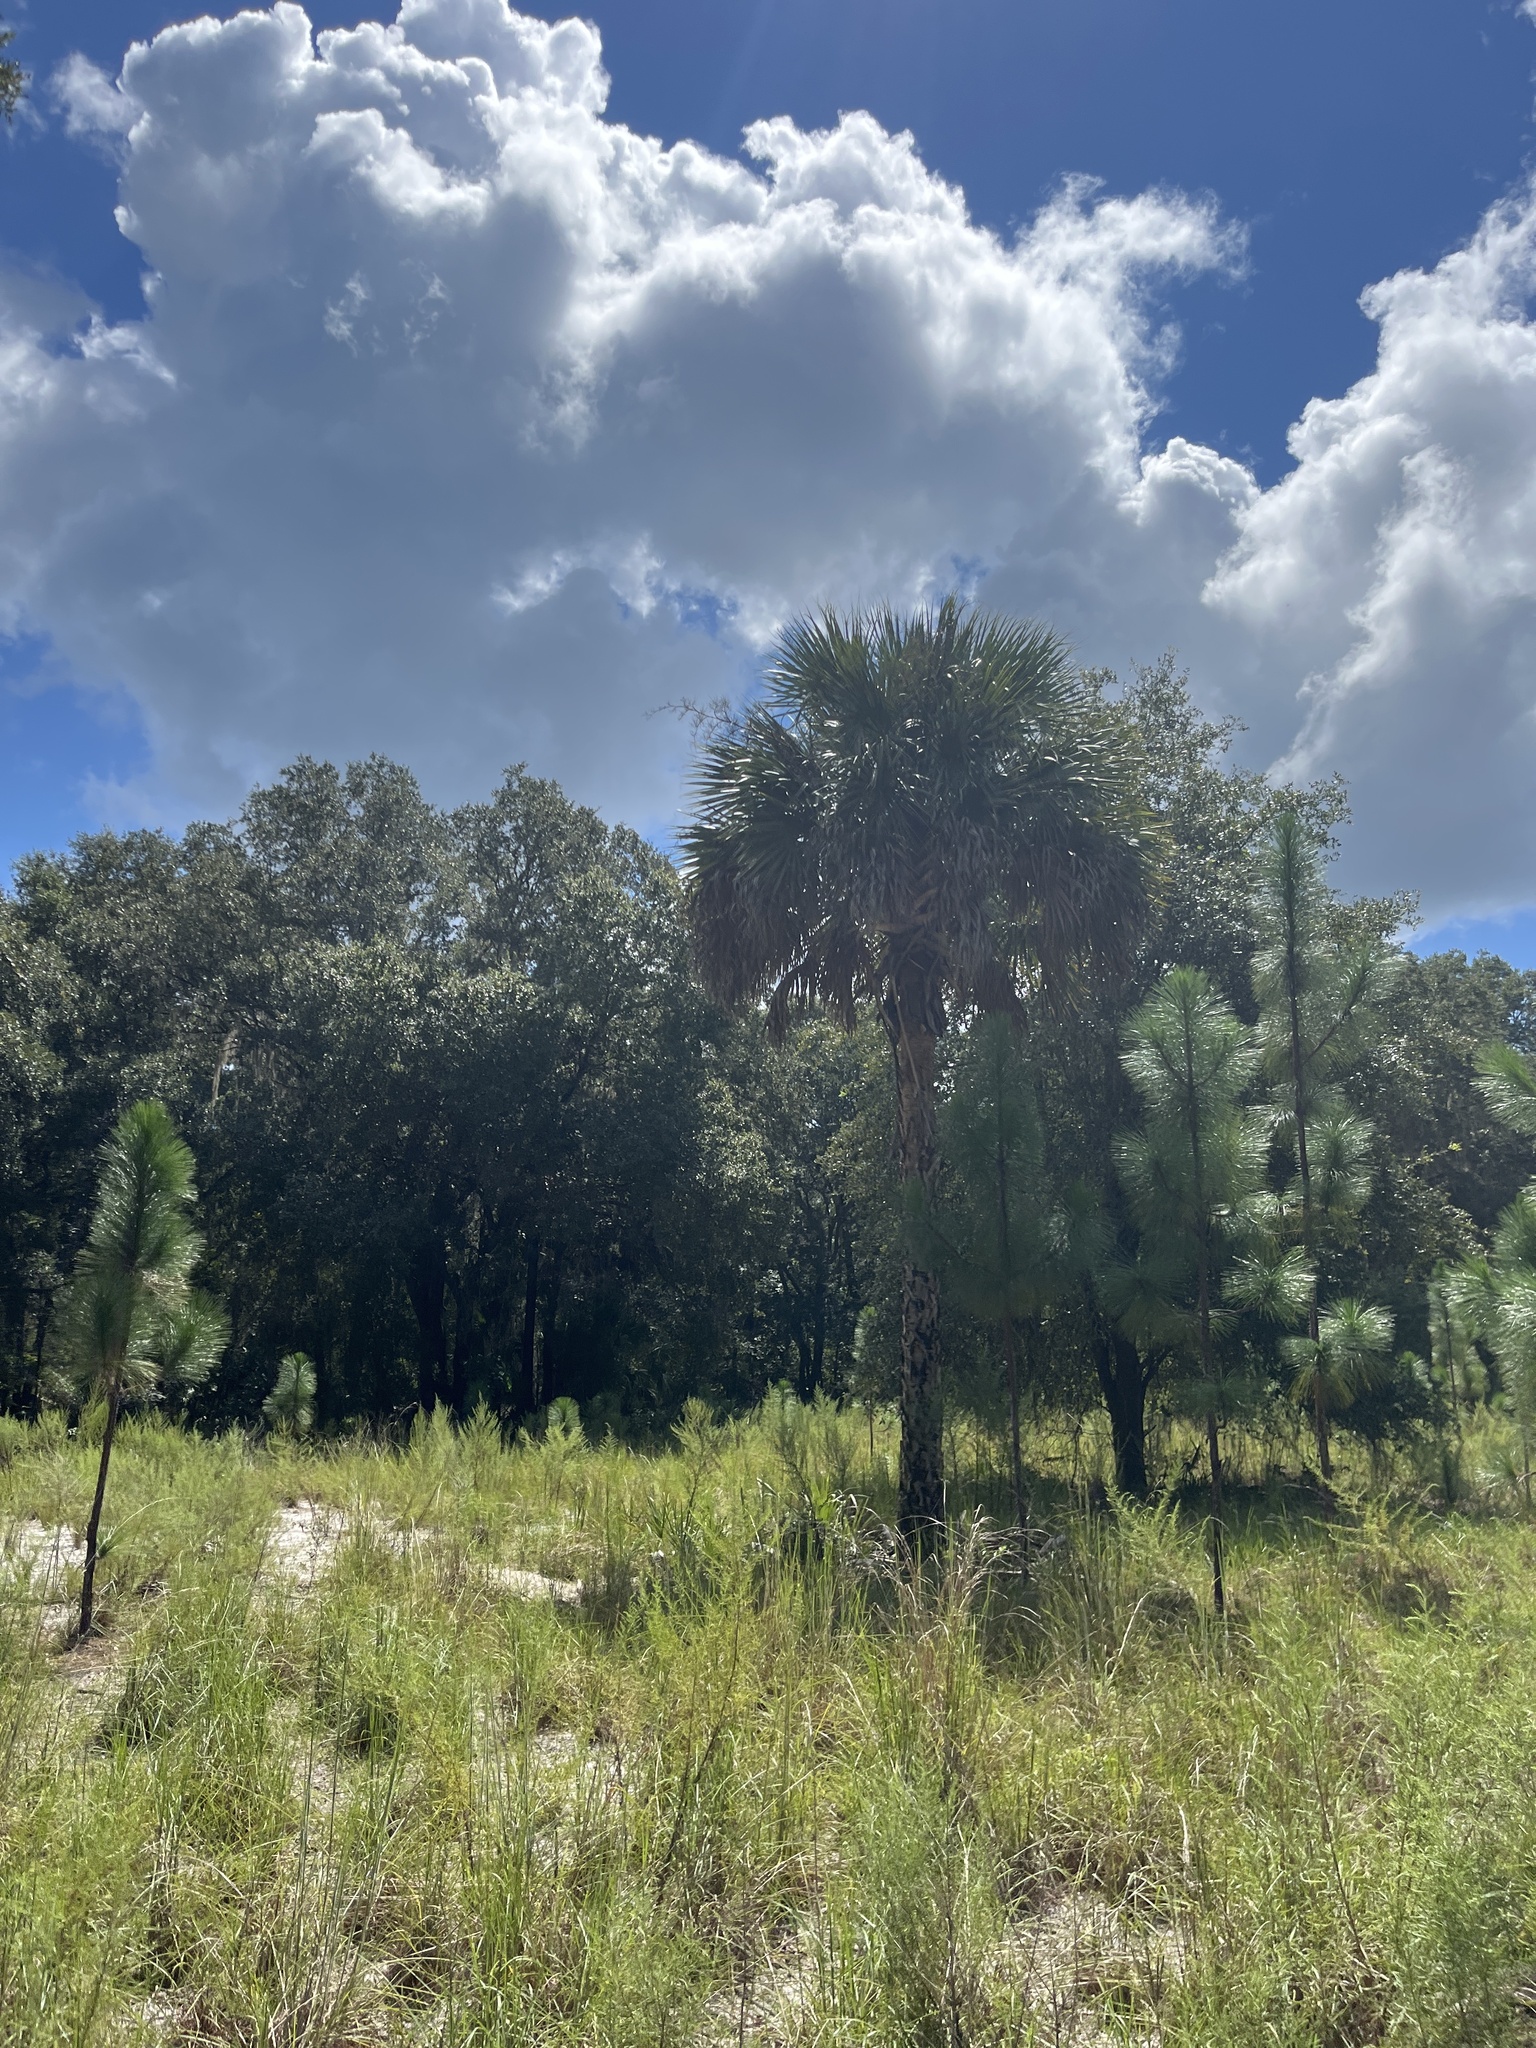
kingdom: Plantae
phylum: Tracheophyta
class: Liliopsida
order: Arecales
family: Arecaceae
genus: Sabal
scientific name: Sabal palmetto
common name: Blue palmetto
